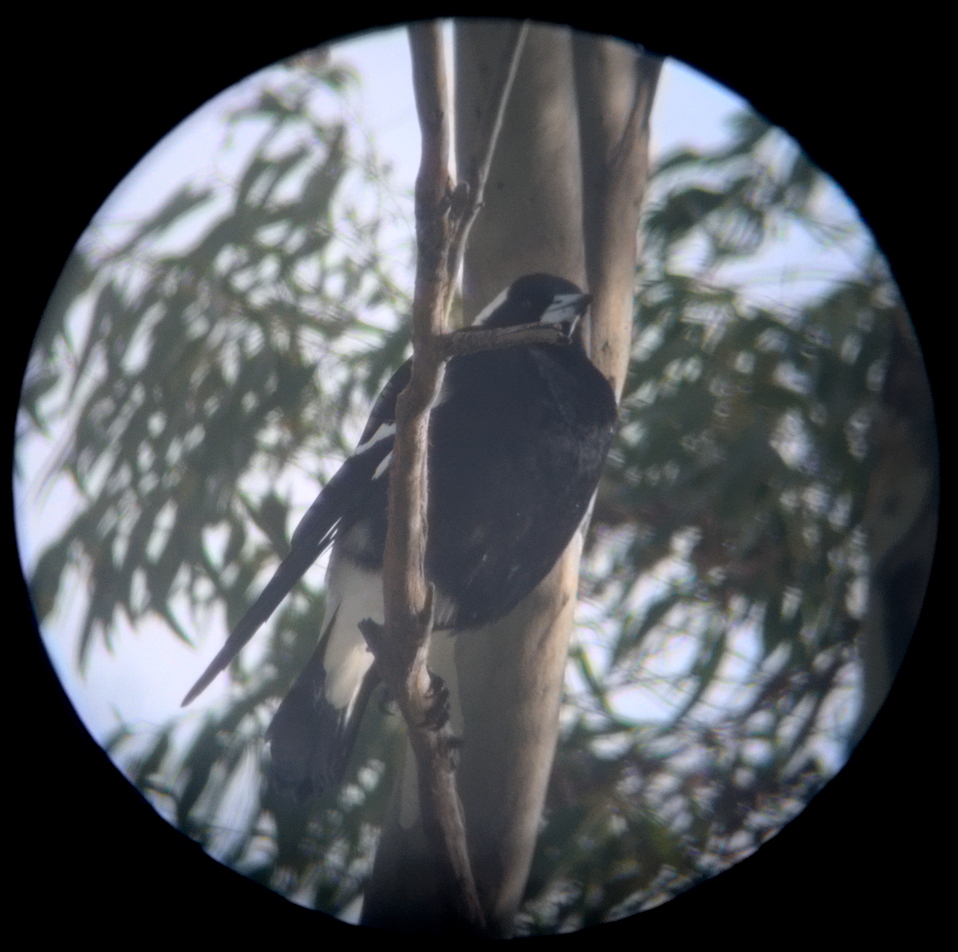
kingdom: Animalia
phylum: Chordata
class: Aves
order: Passeriformes
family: Cracticidae
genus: Gymnorhina
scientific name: Gymnorhina tibicen
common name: Australian magpie
